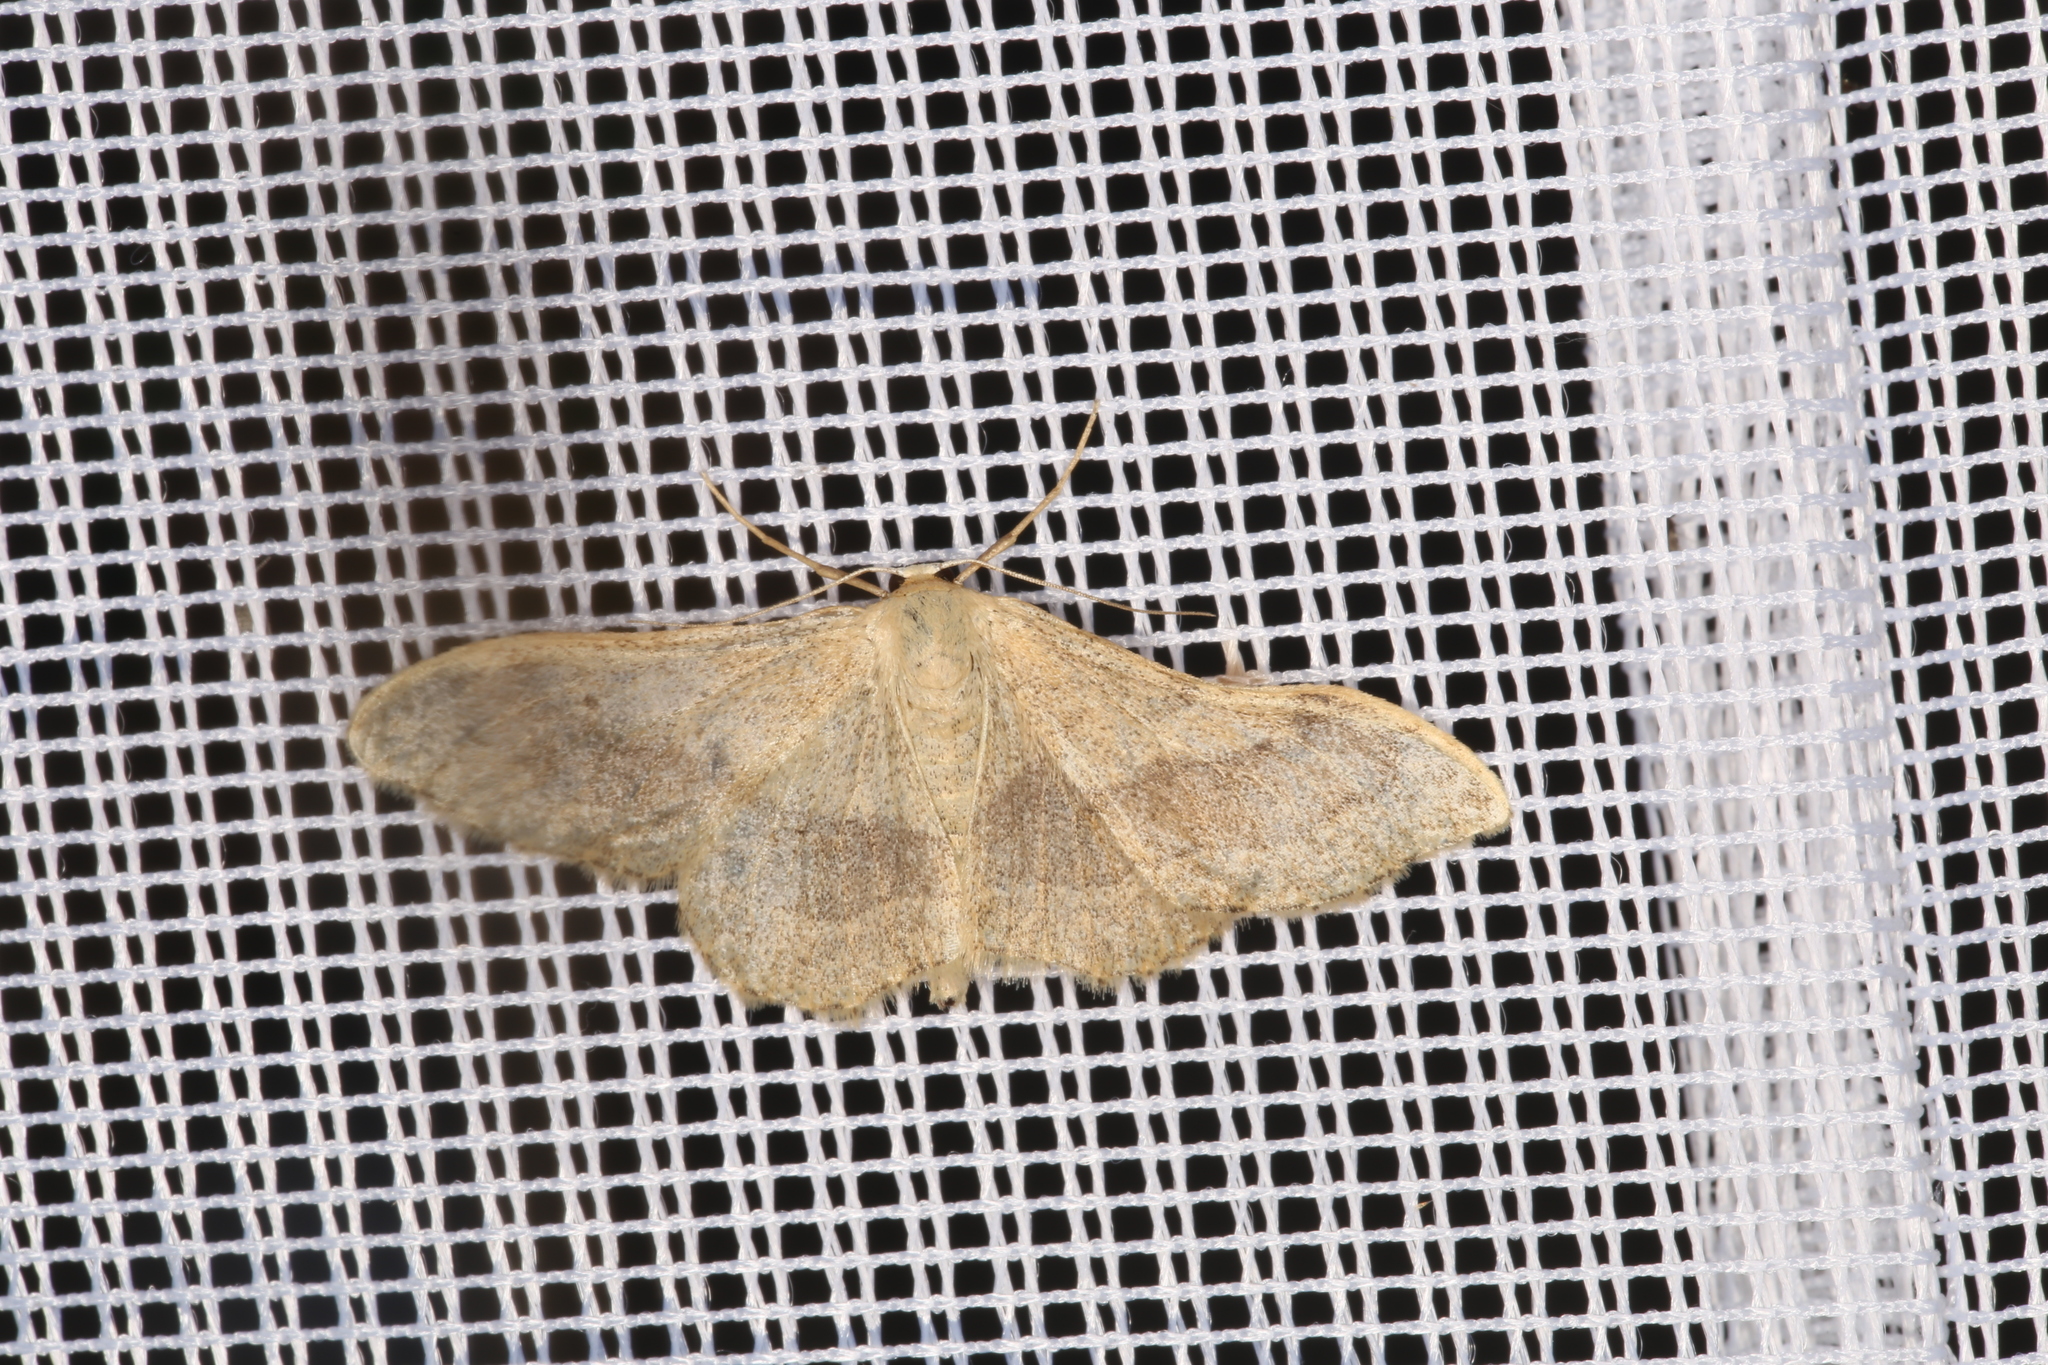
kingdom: Animalia
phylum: Arthropoda
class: Insecta
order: Lepidoptera
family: Geometridae
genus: Idaea
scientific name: Idaea aversata
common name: Riband wave
